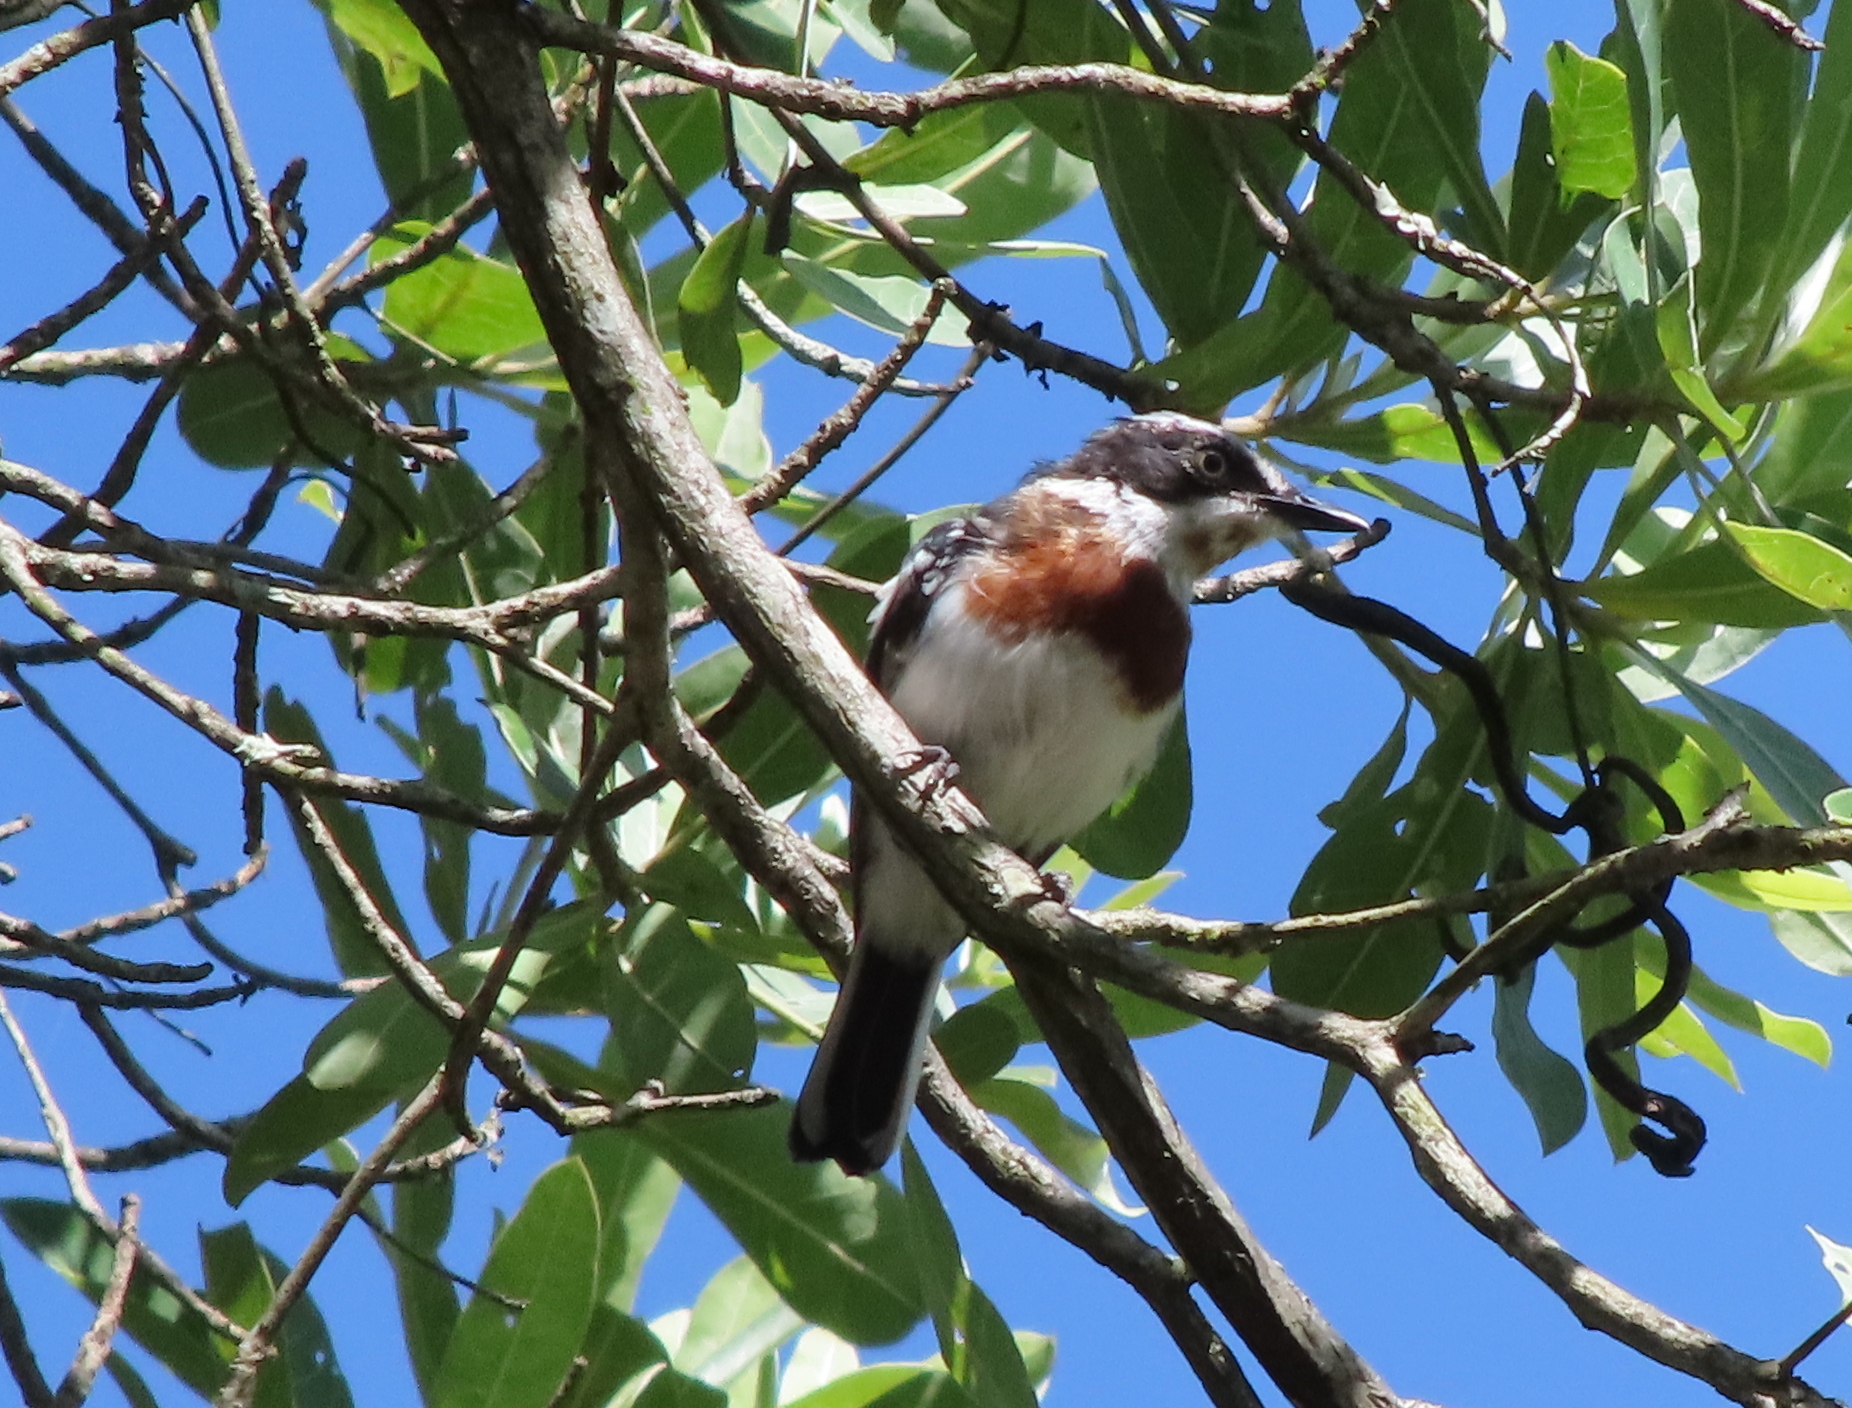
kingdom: Animalia
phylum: Chordata
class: Aves
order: Passeriformes
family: Platysteiridae
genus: Batis
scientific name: Batis molitor
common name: Chinspot batis
